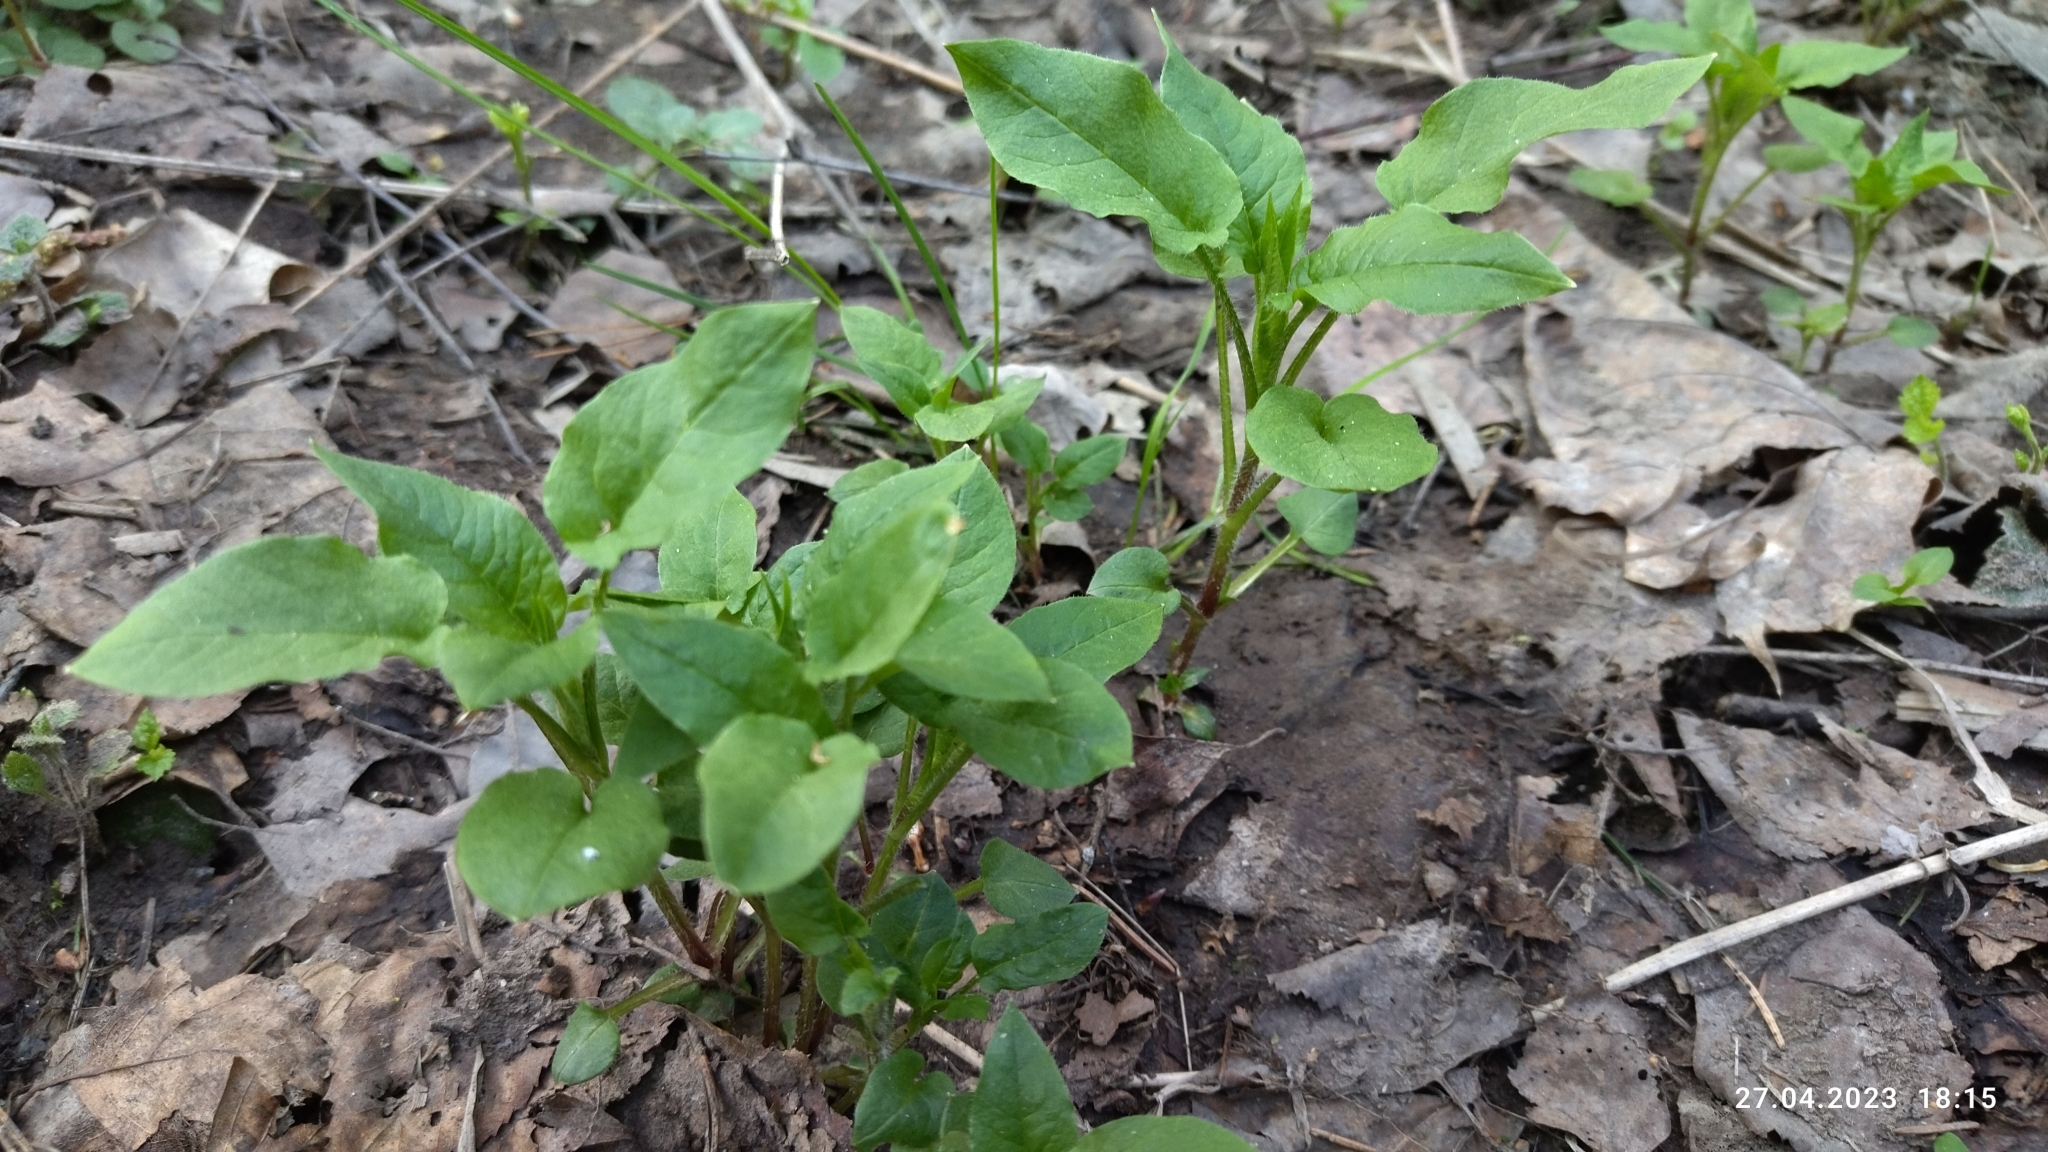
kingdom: Plantae
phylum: Tracheophyta
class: Magnoliopsida
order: Caryophyllales
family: Caryophyllaceae
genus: Stellaria
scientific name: Stellaria nemorum
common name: Wood stitchwort
